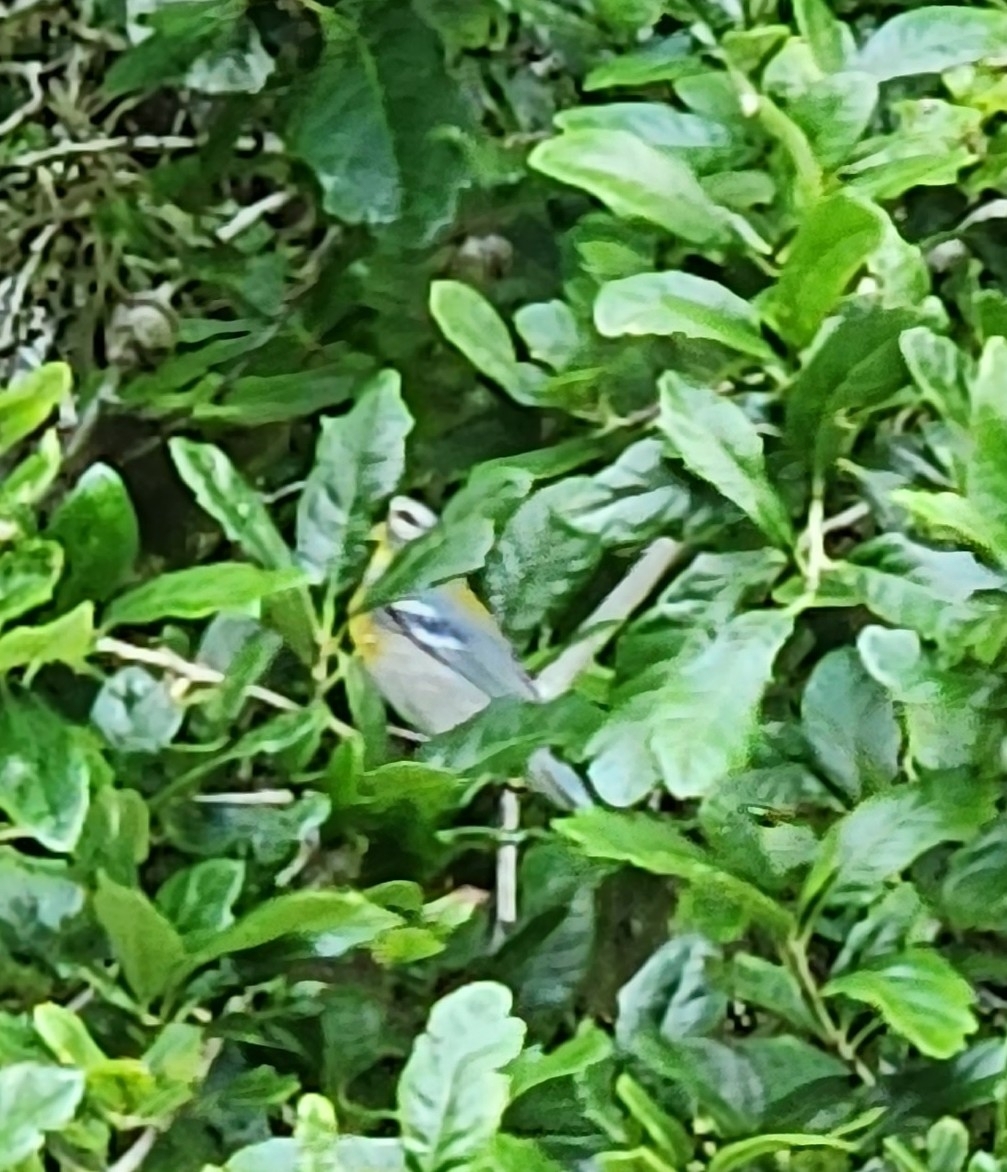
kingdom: Animalia
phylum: Chordata
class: Aves
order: Passeriformes
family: Parulidae
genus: Setophaga
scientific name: Setophaga americana
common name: Northern parula
